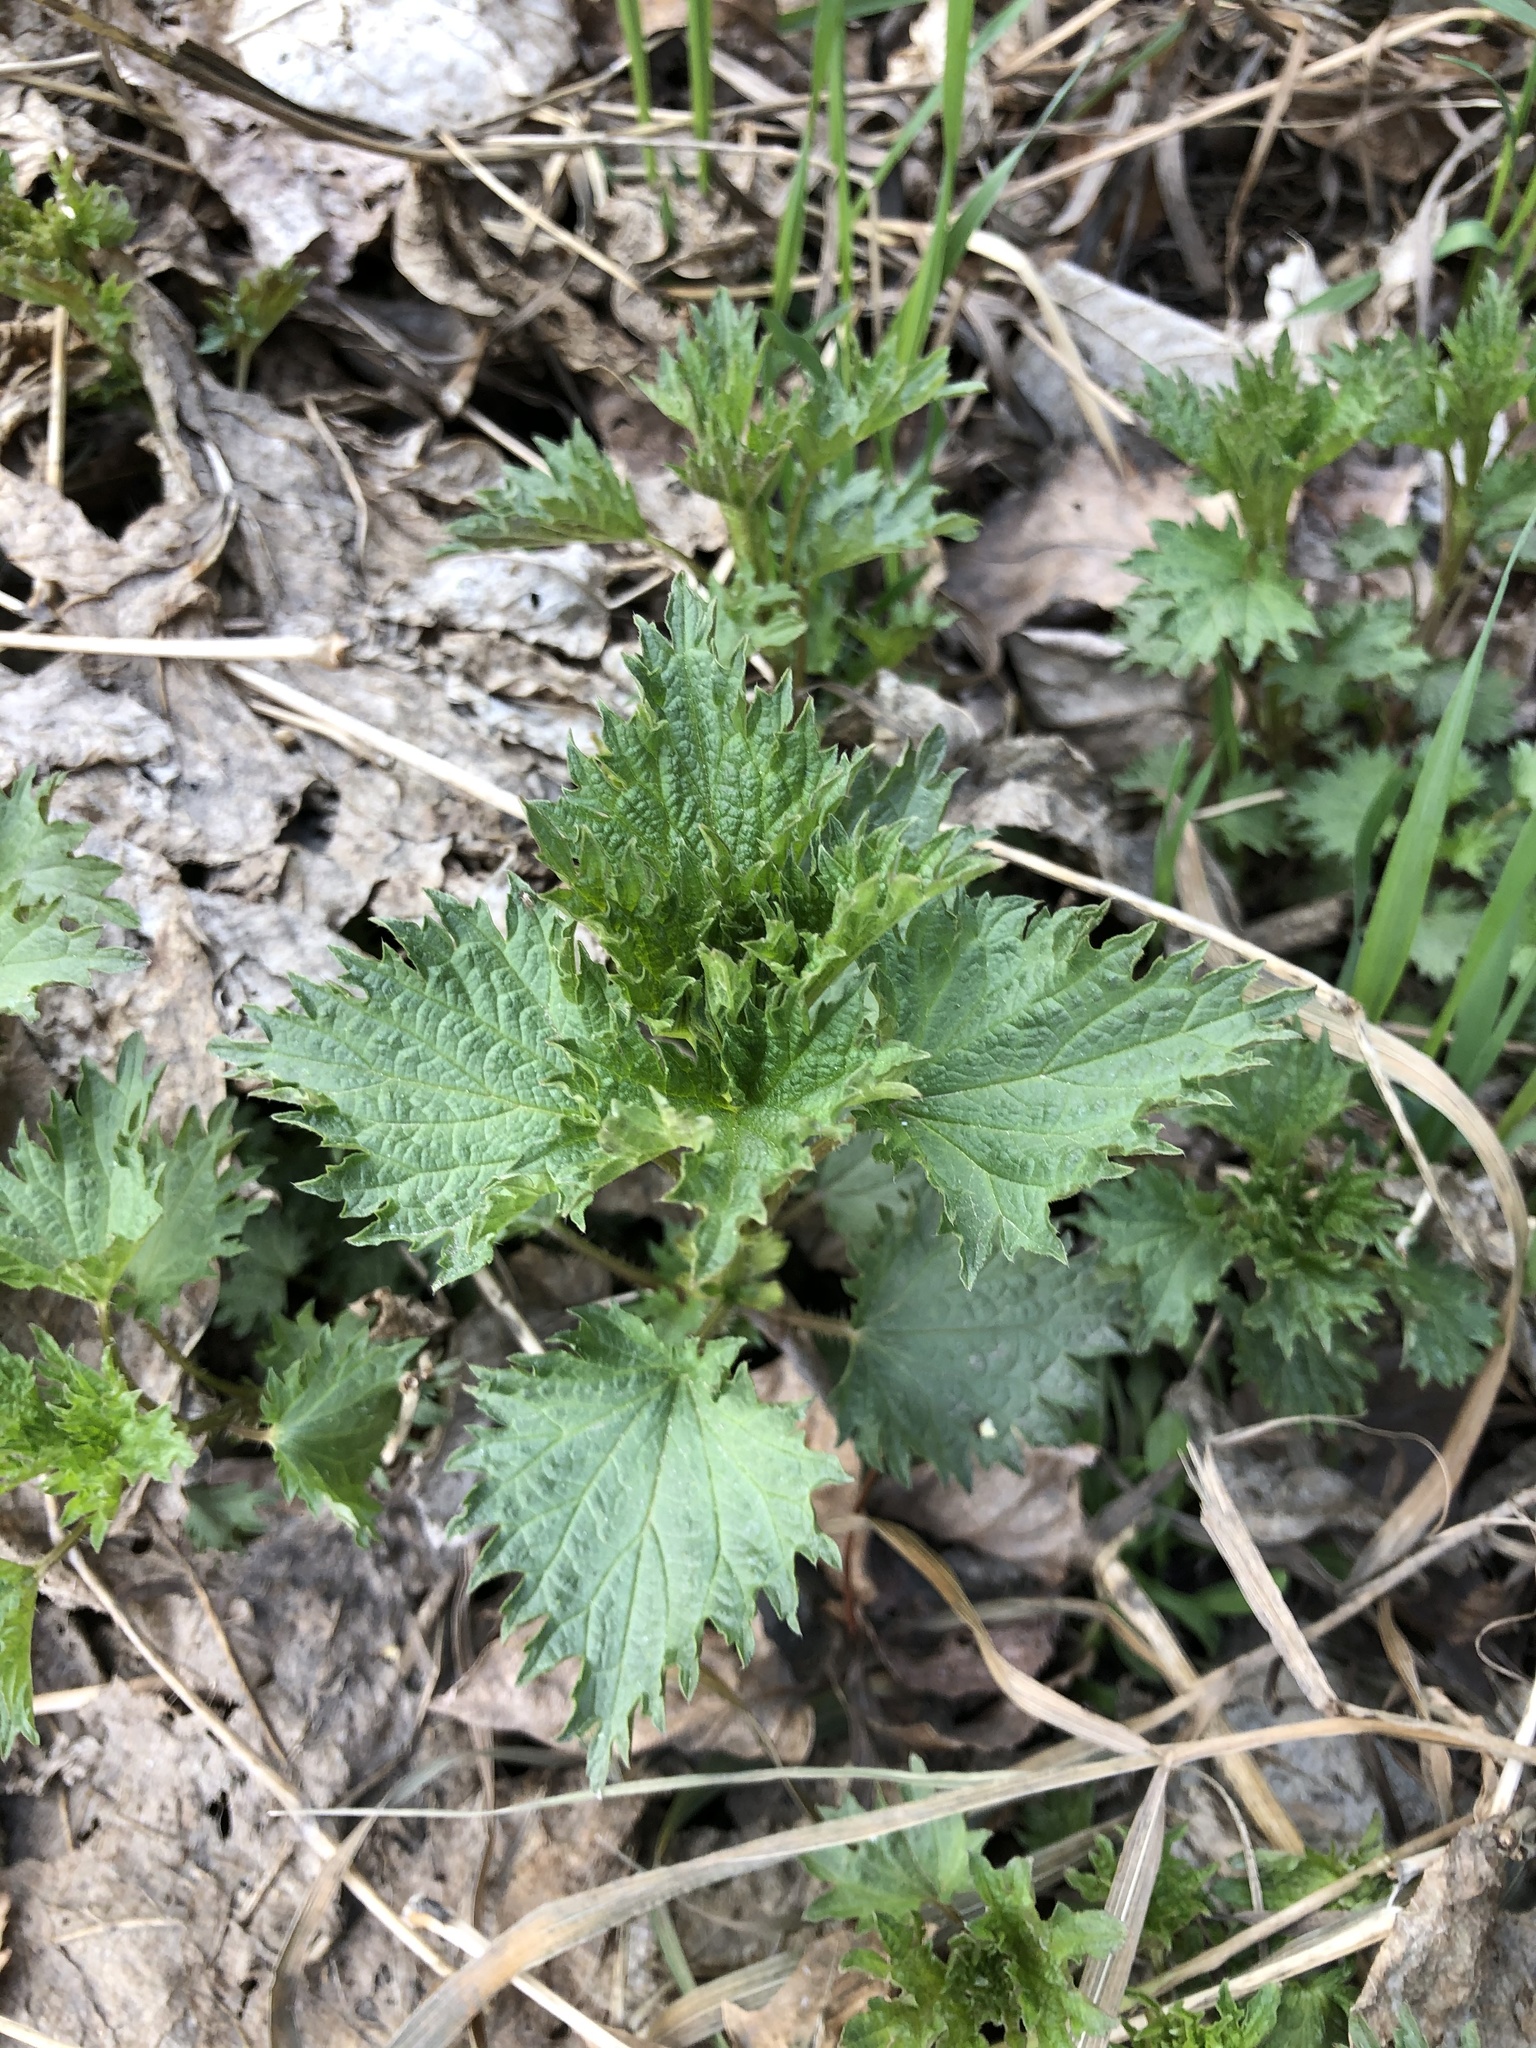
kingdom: Plantae
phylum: Tracheophyta
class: Magnoliopsida
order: Rosales
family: Urticaceae
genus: Urtica
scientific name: Urtica dioica
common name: Common nettle
